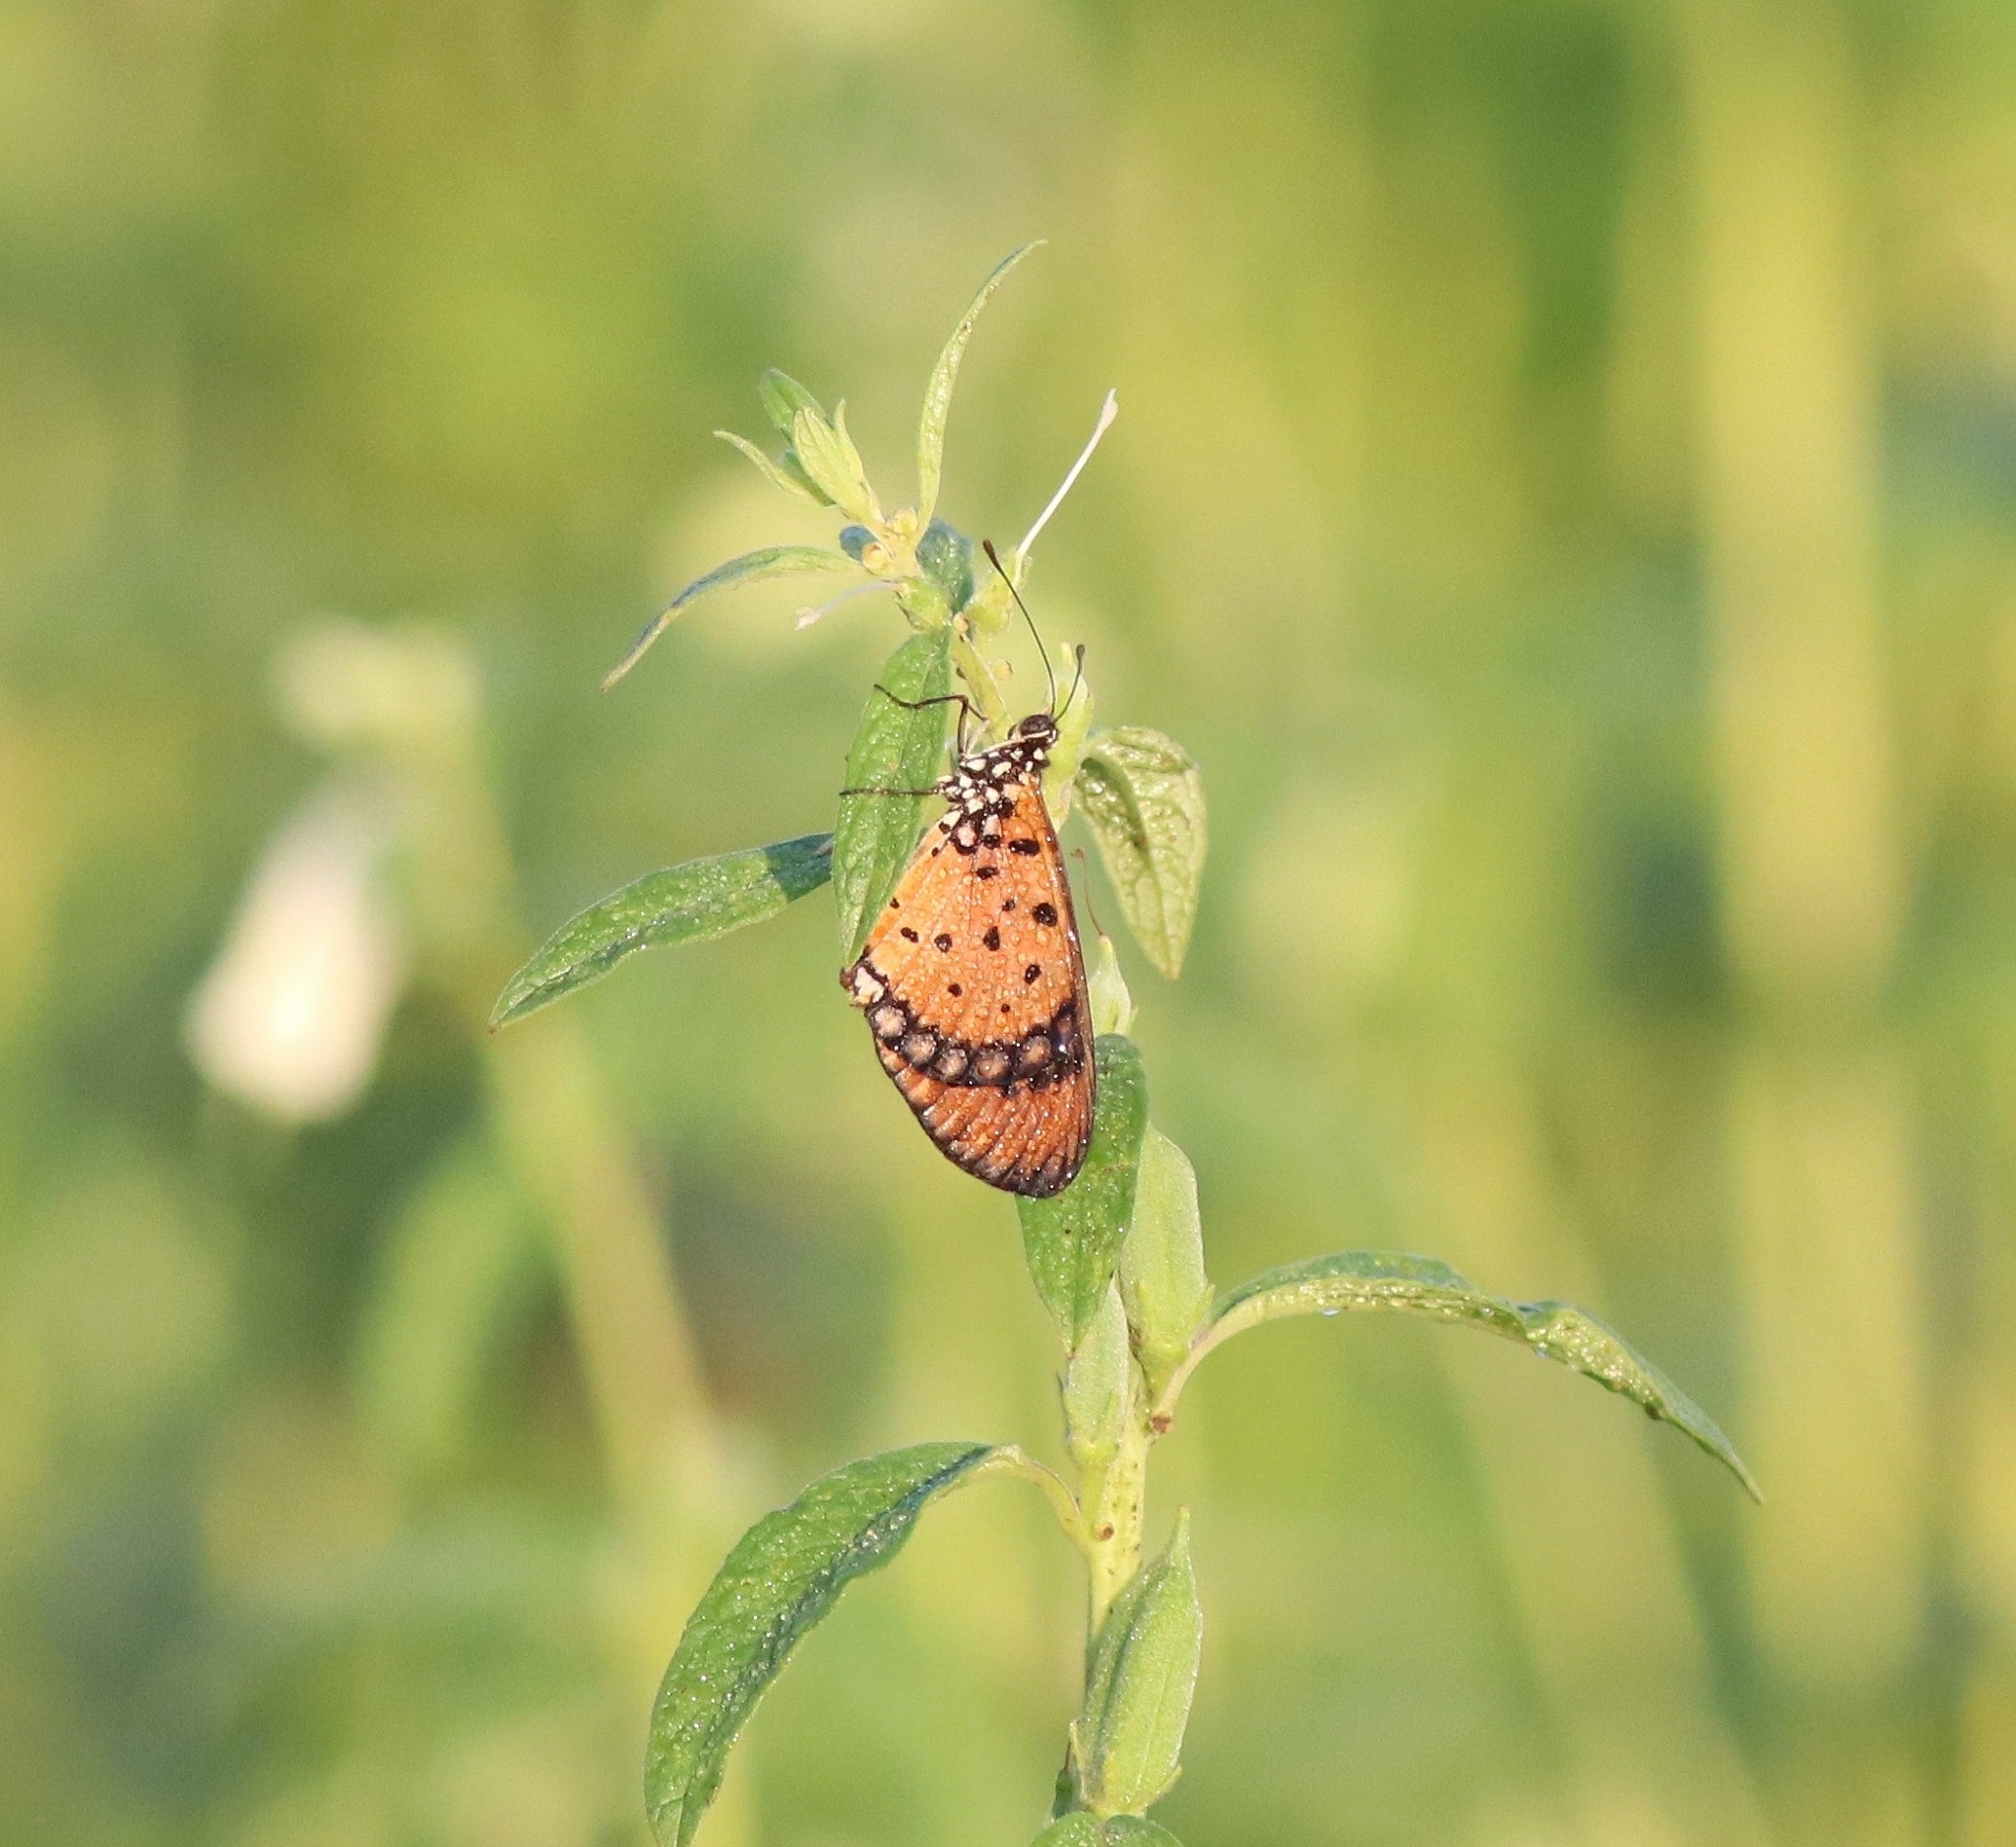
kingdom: Animalia
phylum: Arthropoda
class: Insecta
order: Lepidoptera
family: Nymphalidae
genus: Acraea
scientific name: Acraea terpsicore
